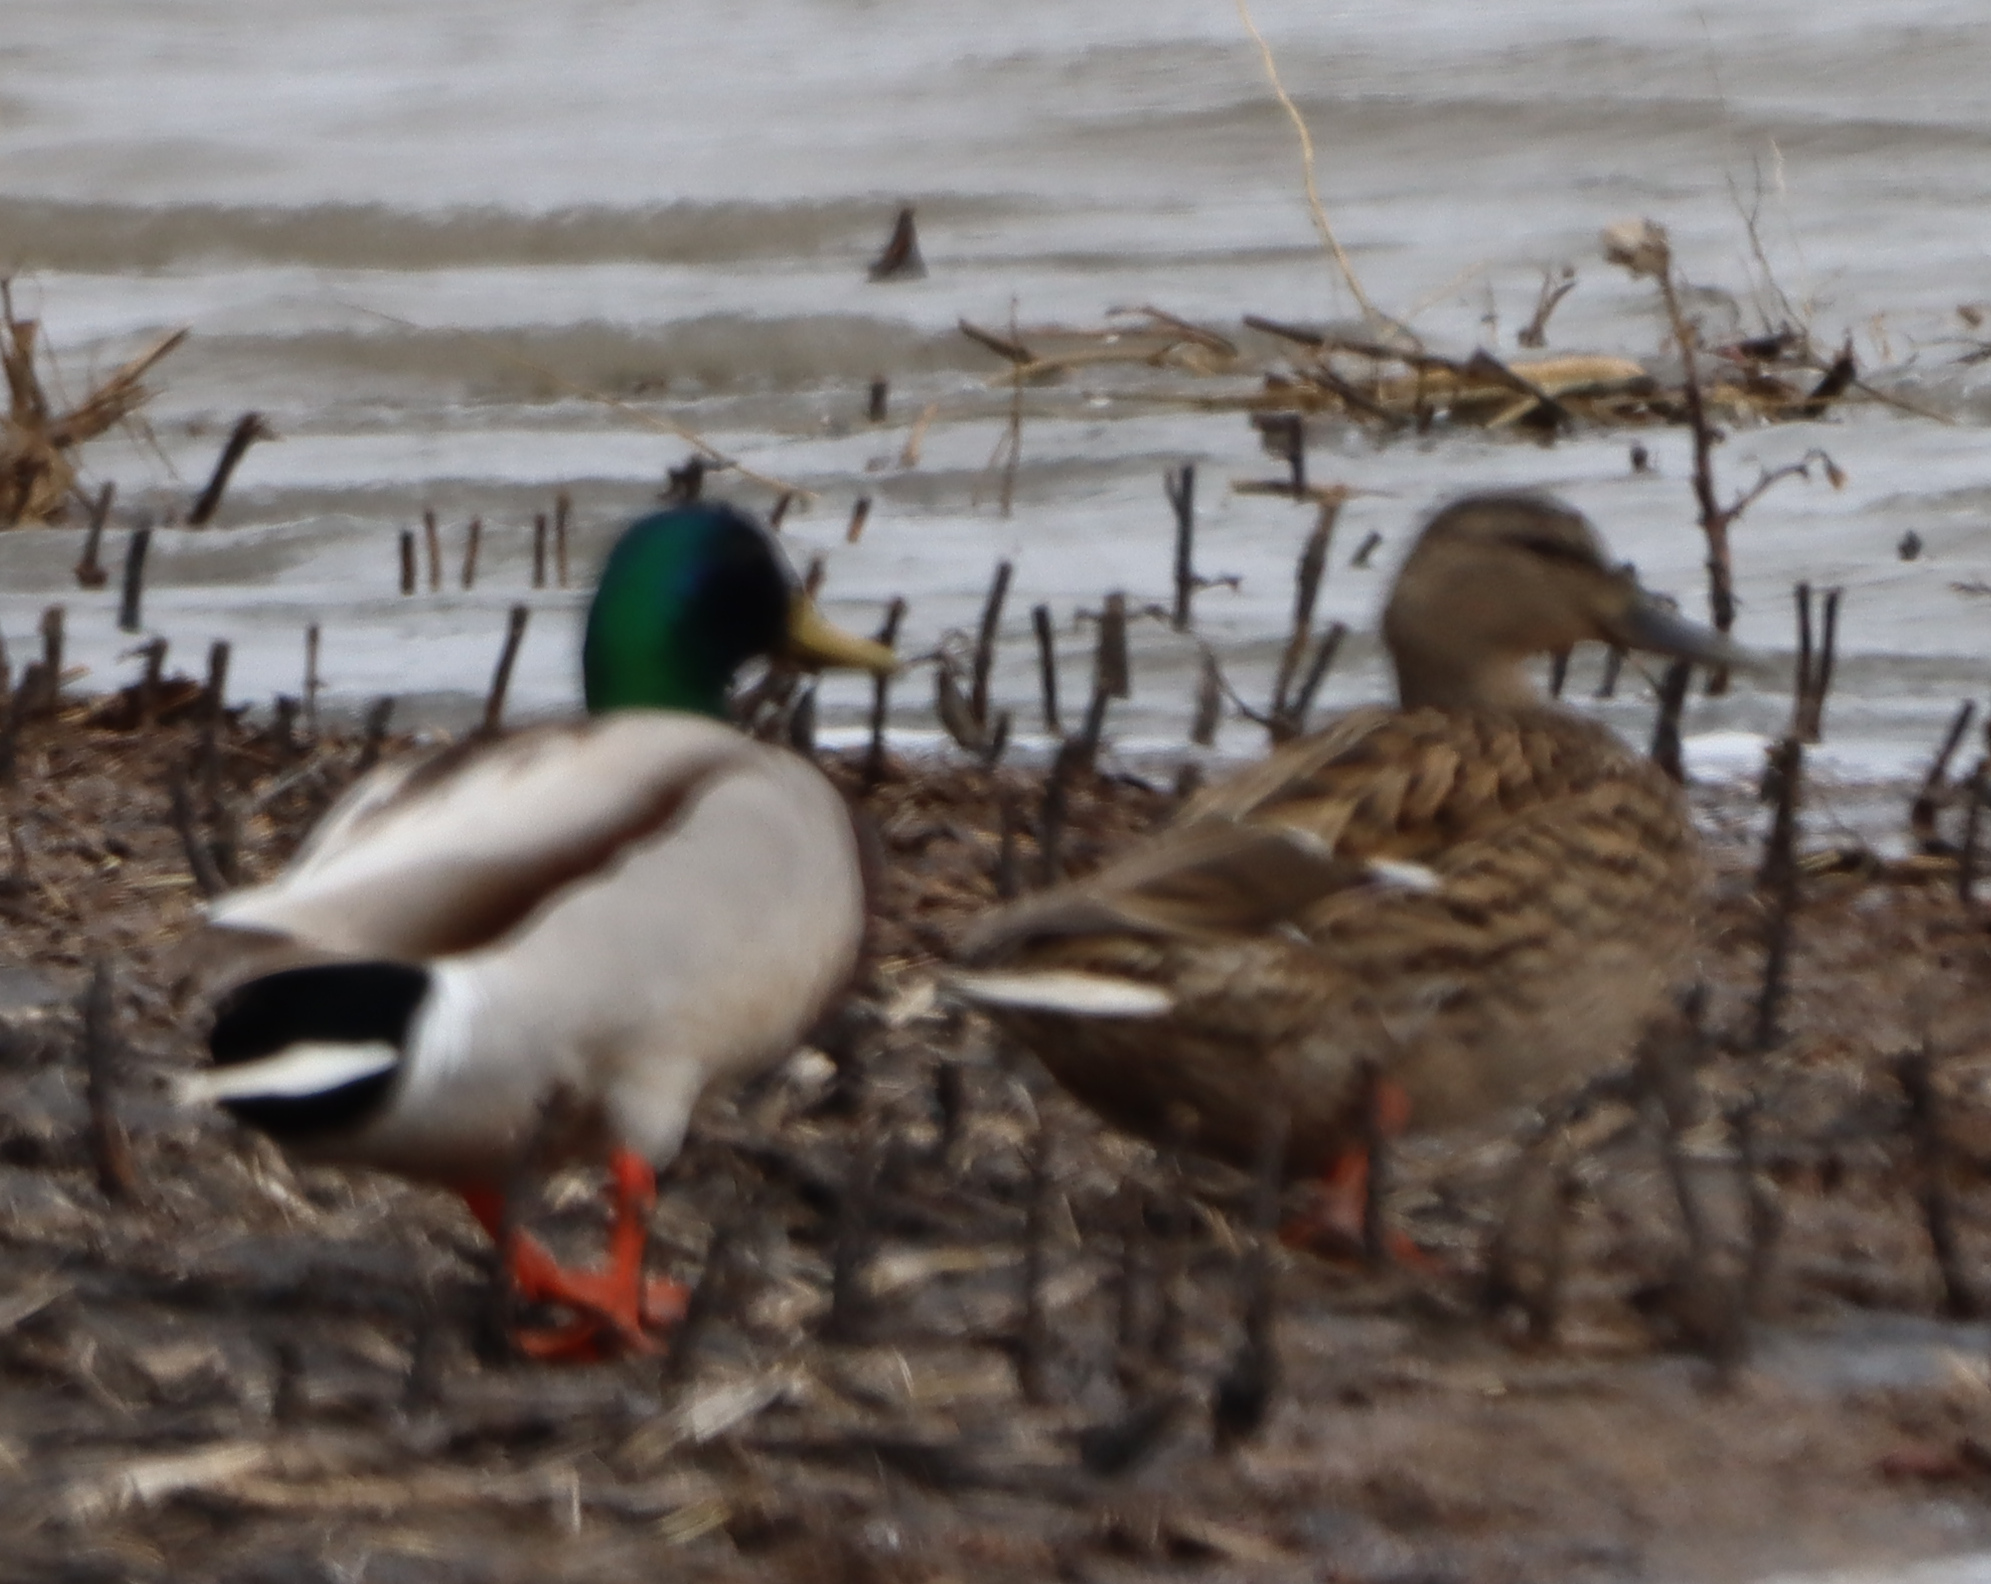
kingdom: Animalia
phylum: Chordata
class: Aves
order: Anseriformes
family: Anatidae
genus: Anas
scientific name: Anas platyrhynchos
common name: Mallard
